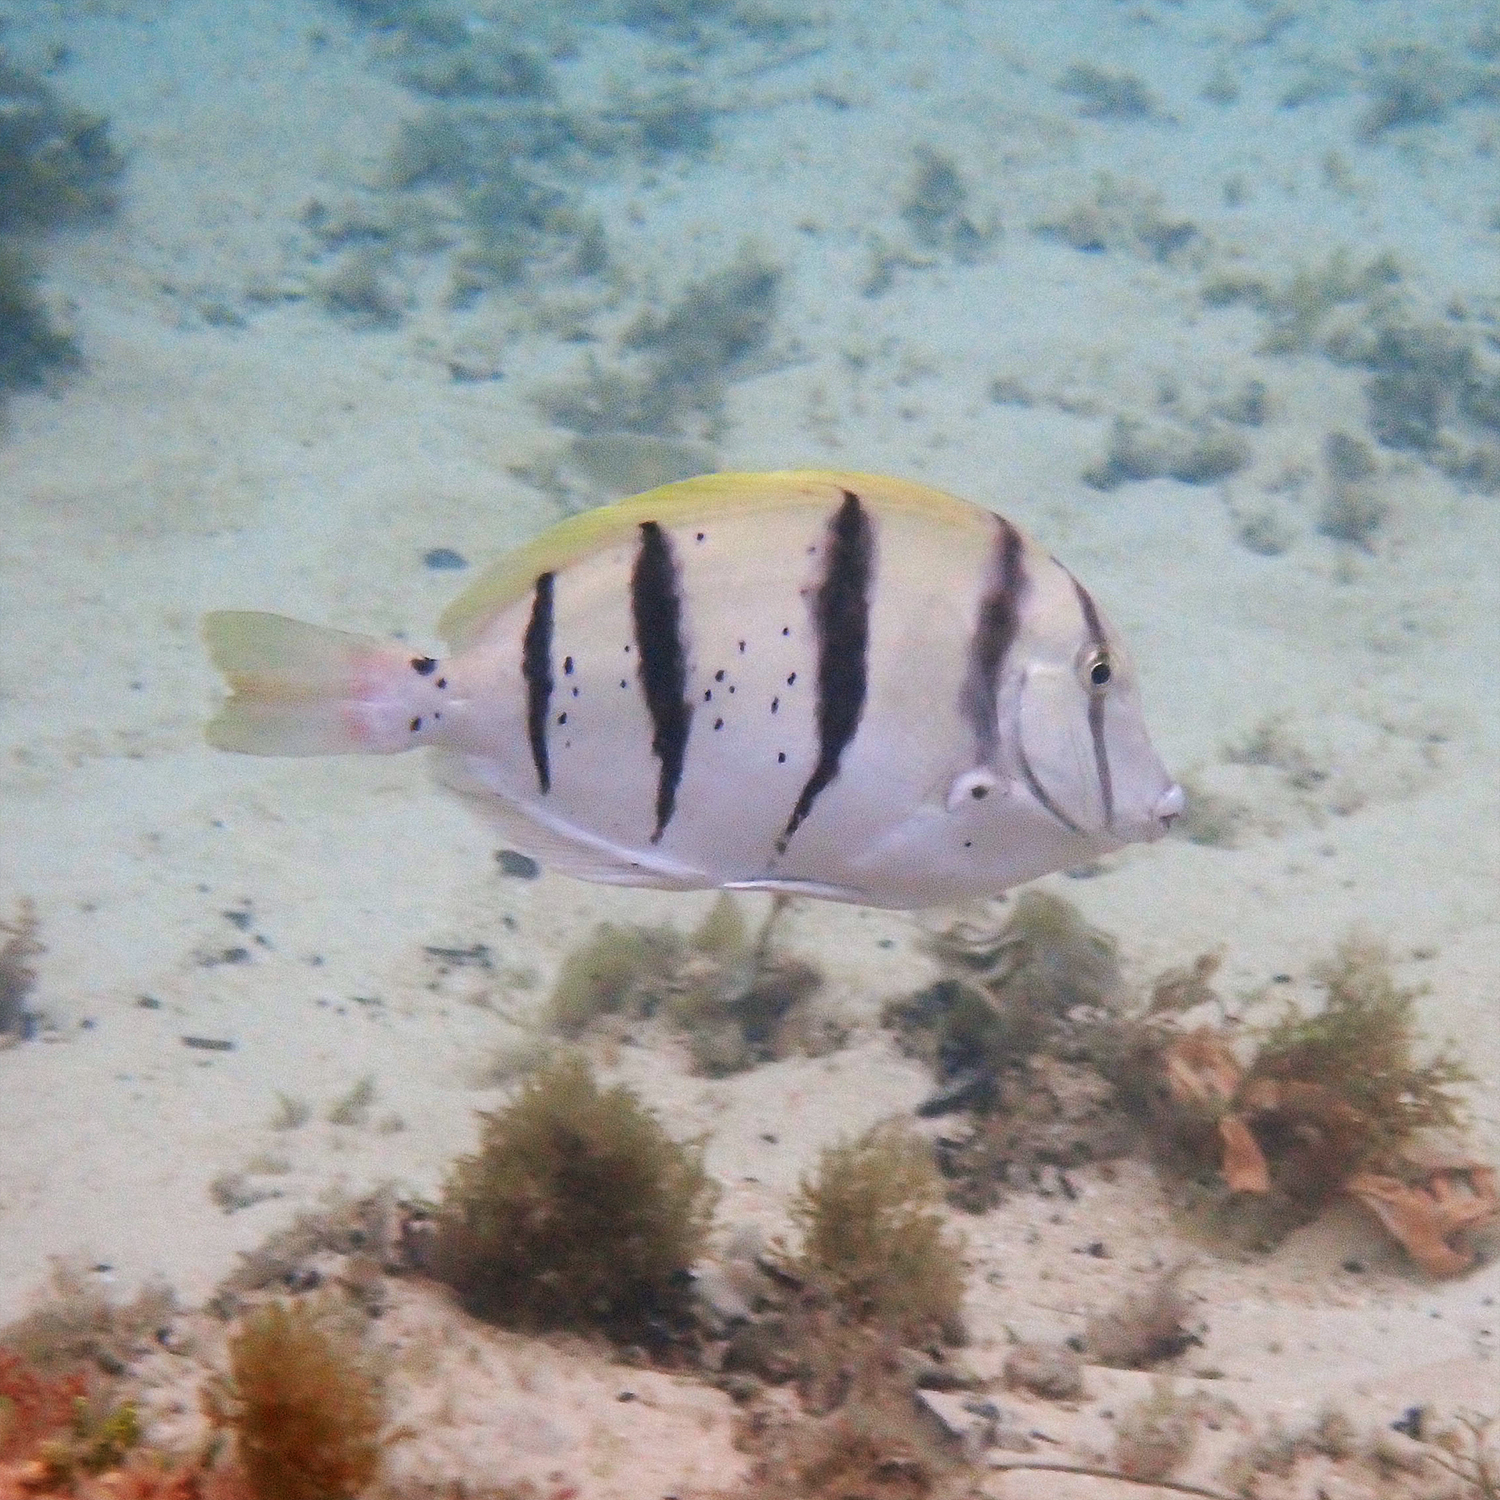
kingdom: Animalia
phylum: Chordata
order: Perciformes
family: Acanthuridae
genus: Acanthurus
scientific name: Acanthurus triostegus
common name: Convict surgeonfish
